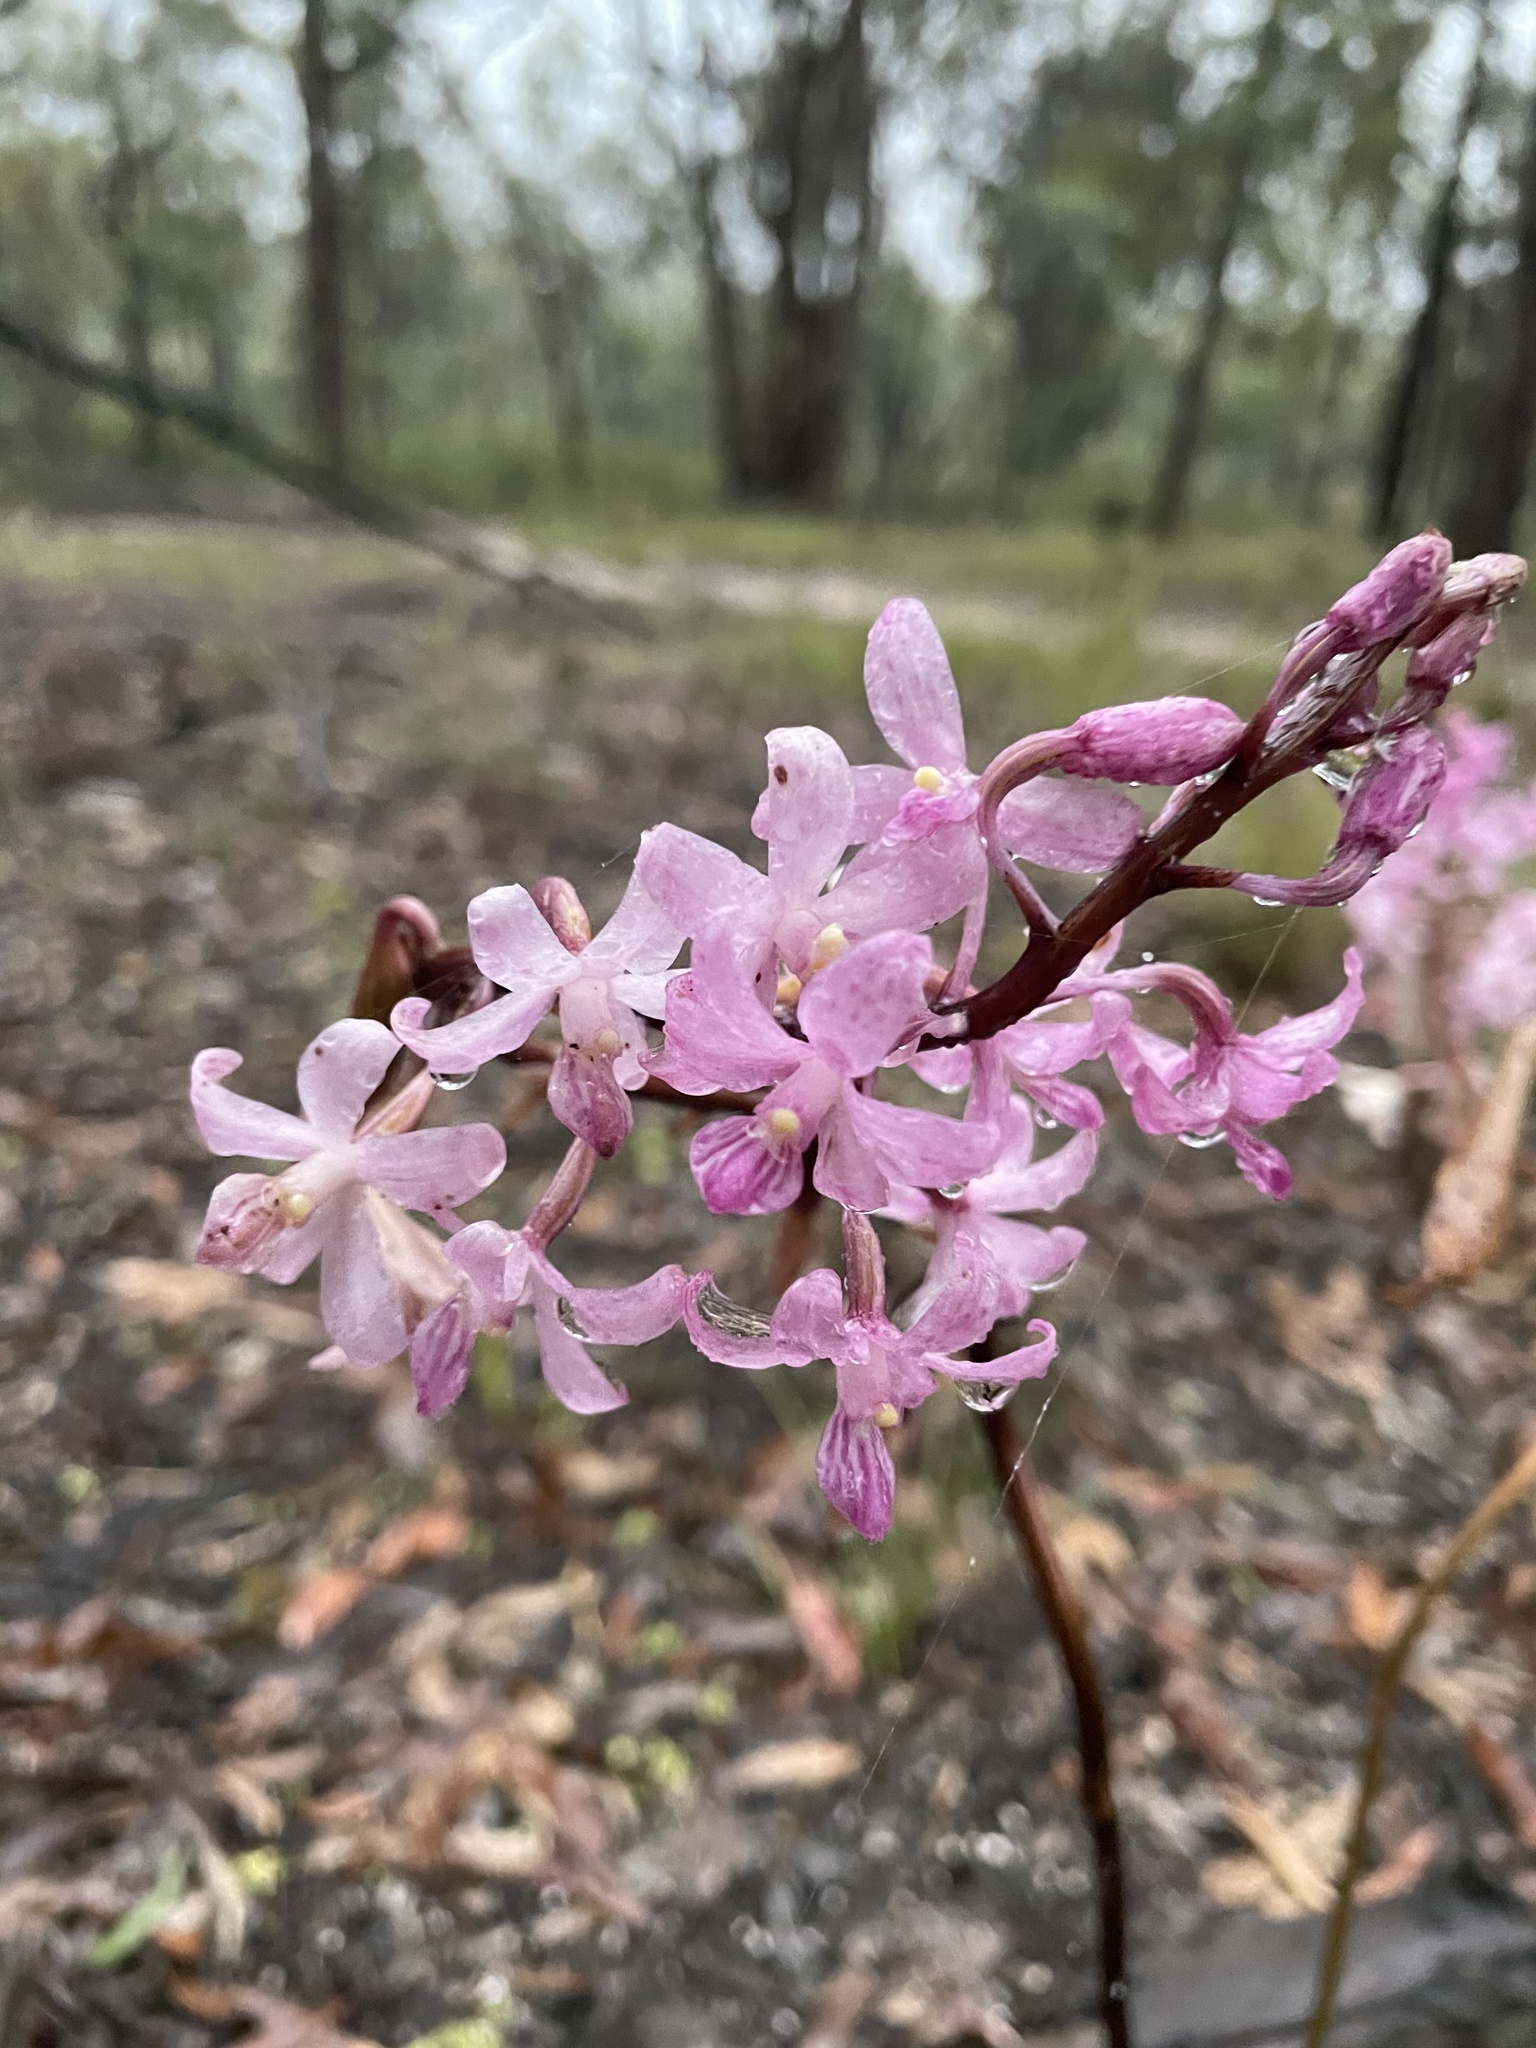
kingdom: Plantae
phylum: Tracheophyta
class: Liliopsida
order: Asparagales
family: Orchidaceae
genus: Dipodium
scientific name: Dipodium roseum
